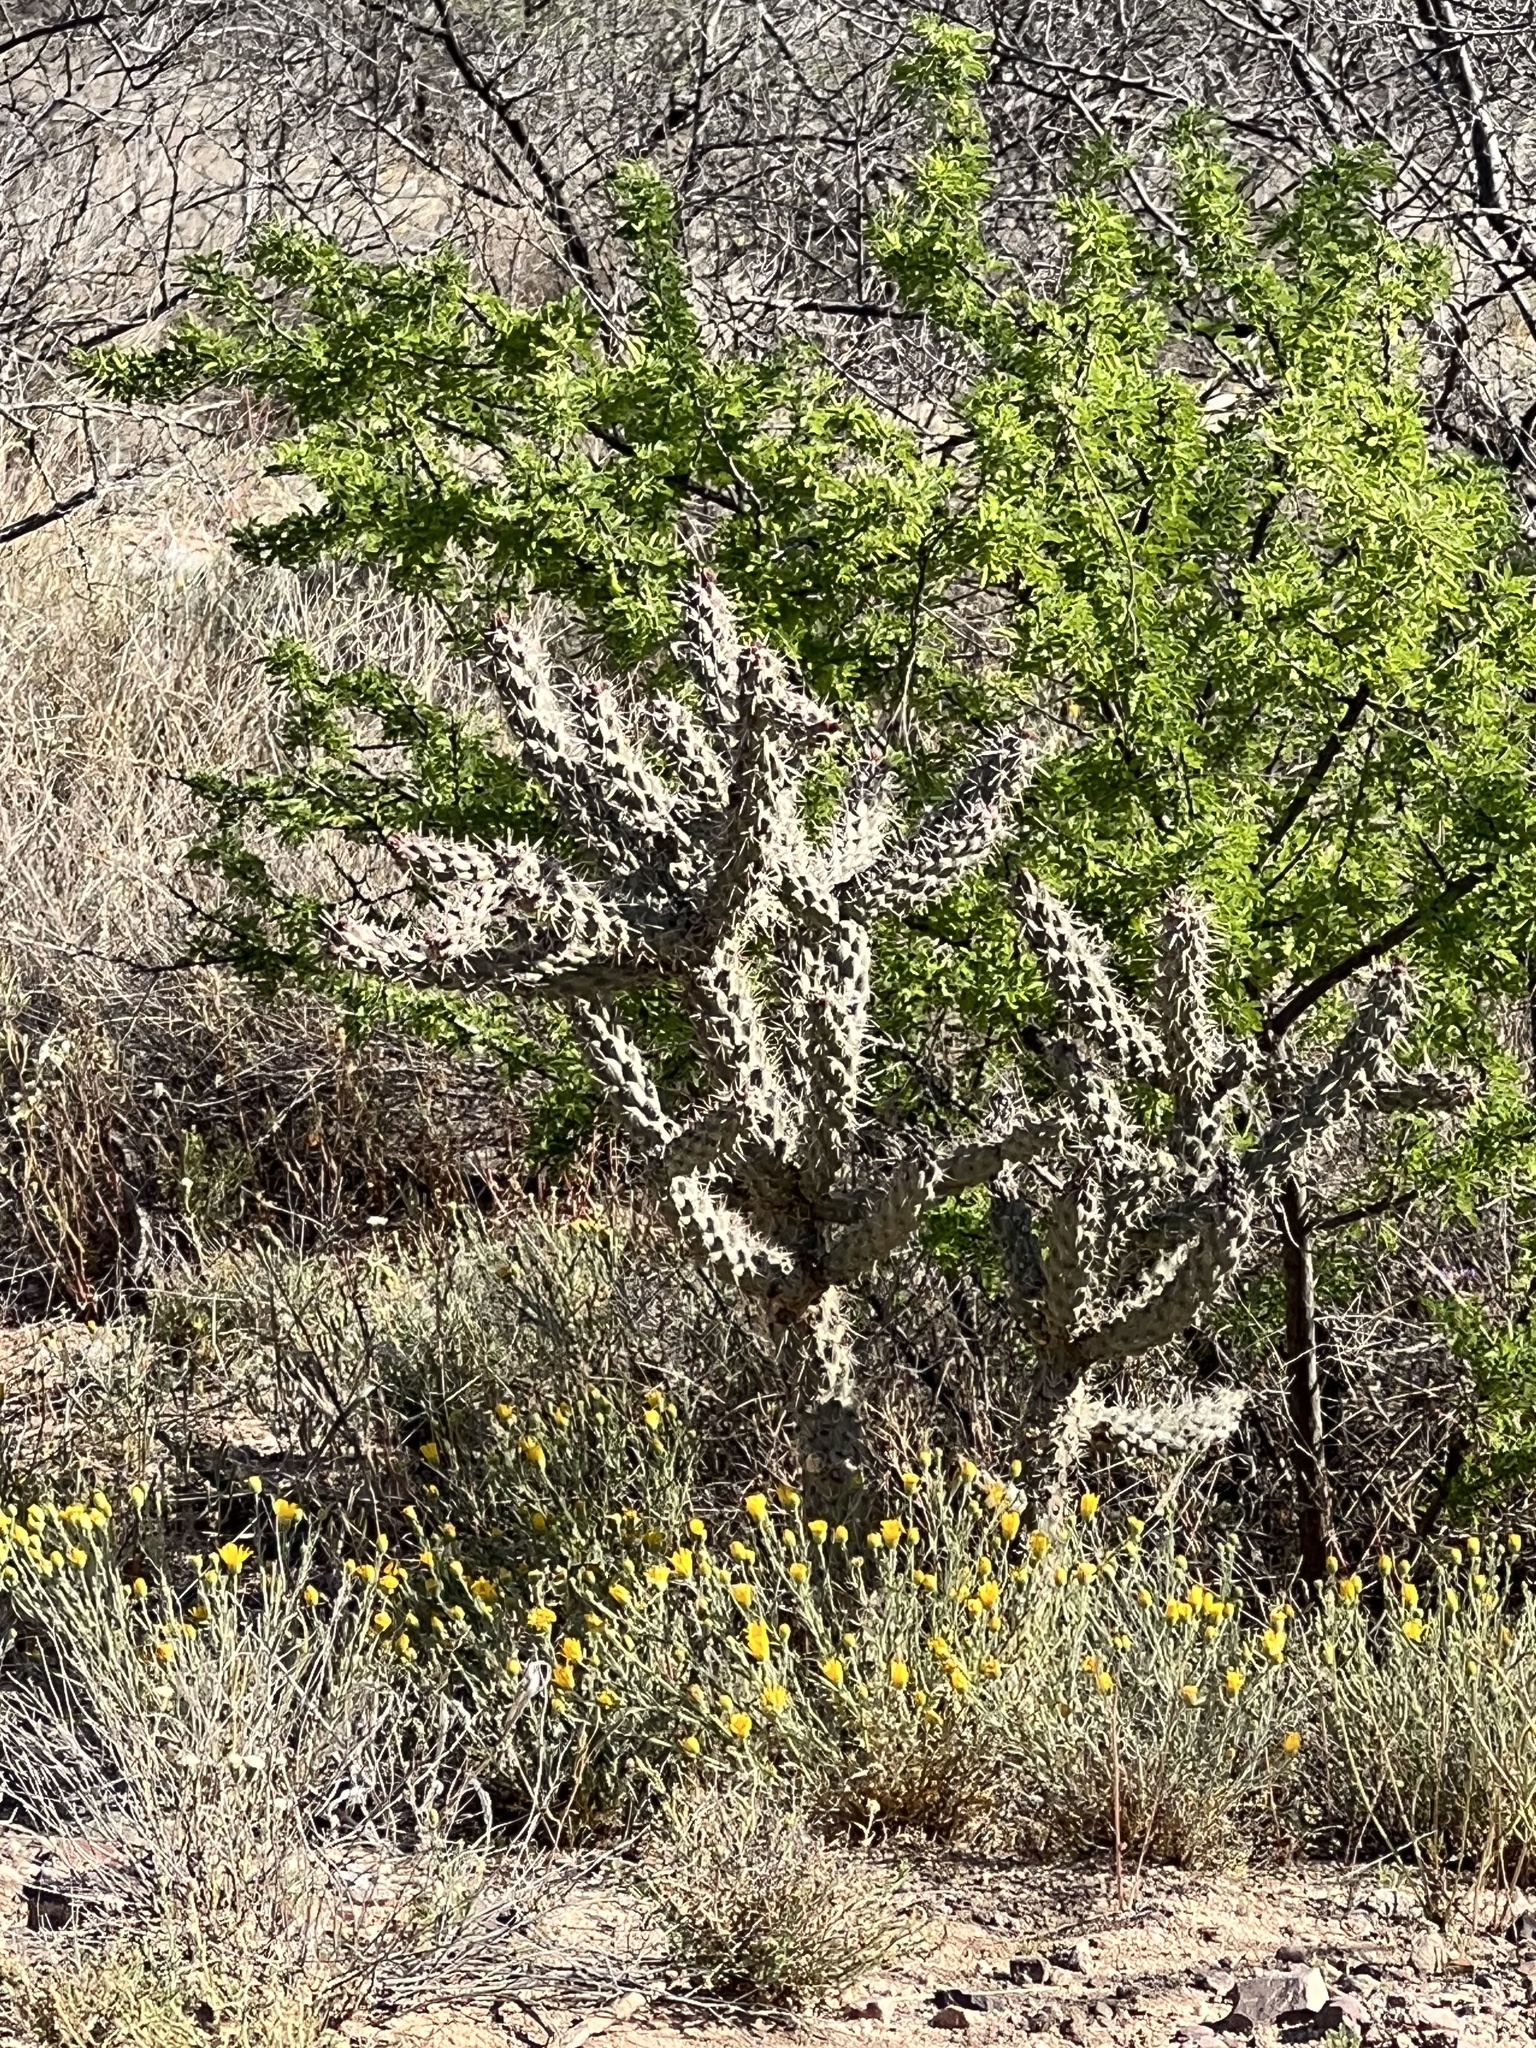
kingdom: Plantae
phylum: Tracheophyta
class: Magnoliopsida
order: Caryophyllales
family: Cactaceae
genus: Cylindropuntia
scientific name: Cylindropuntia imbricata
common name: Candelabrum cactus
